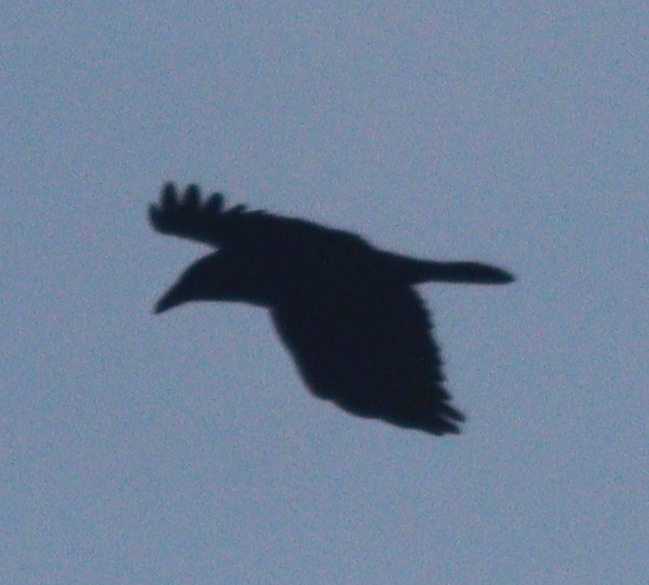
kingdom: Animalia
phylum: Chordata
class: Aves
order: Passeriformes
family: Corvidae
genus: Corvus
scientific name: Corvus corone
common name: Carrion crow
